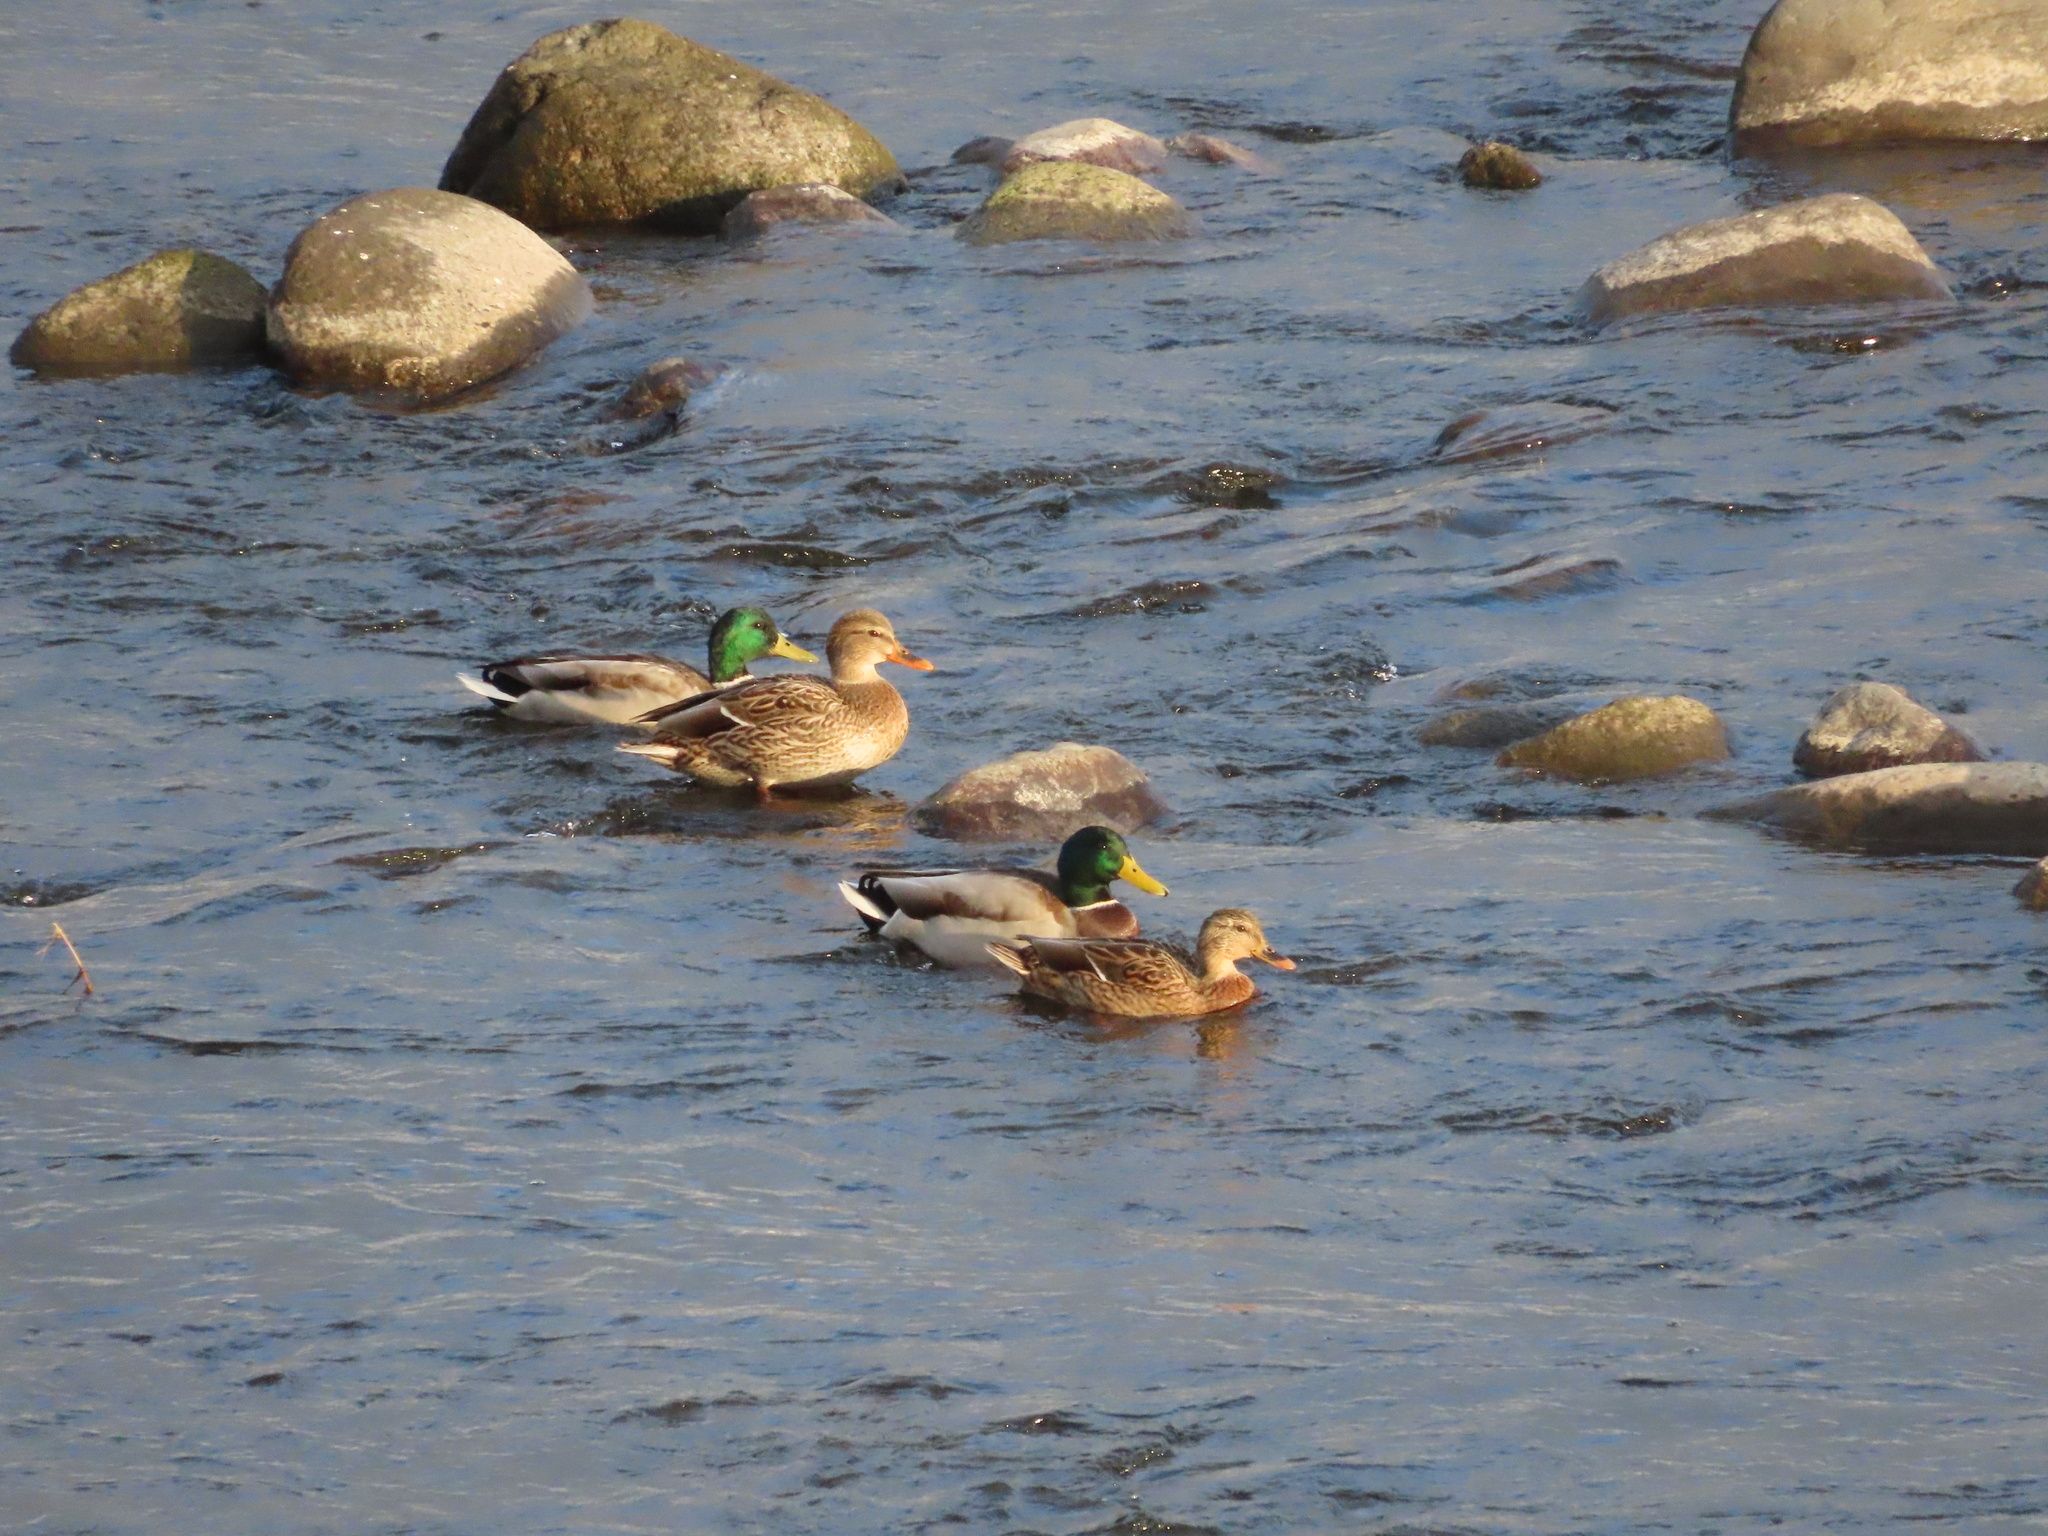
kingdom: Animalia
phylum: Chordata
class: Aves
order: Anseriformes
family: Anatidae
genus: Anas
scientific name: Anas platyrhynchos
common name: Mallard
